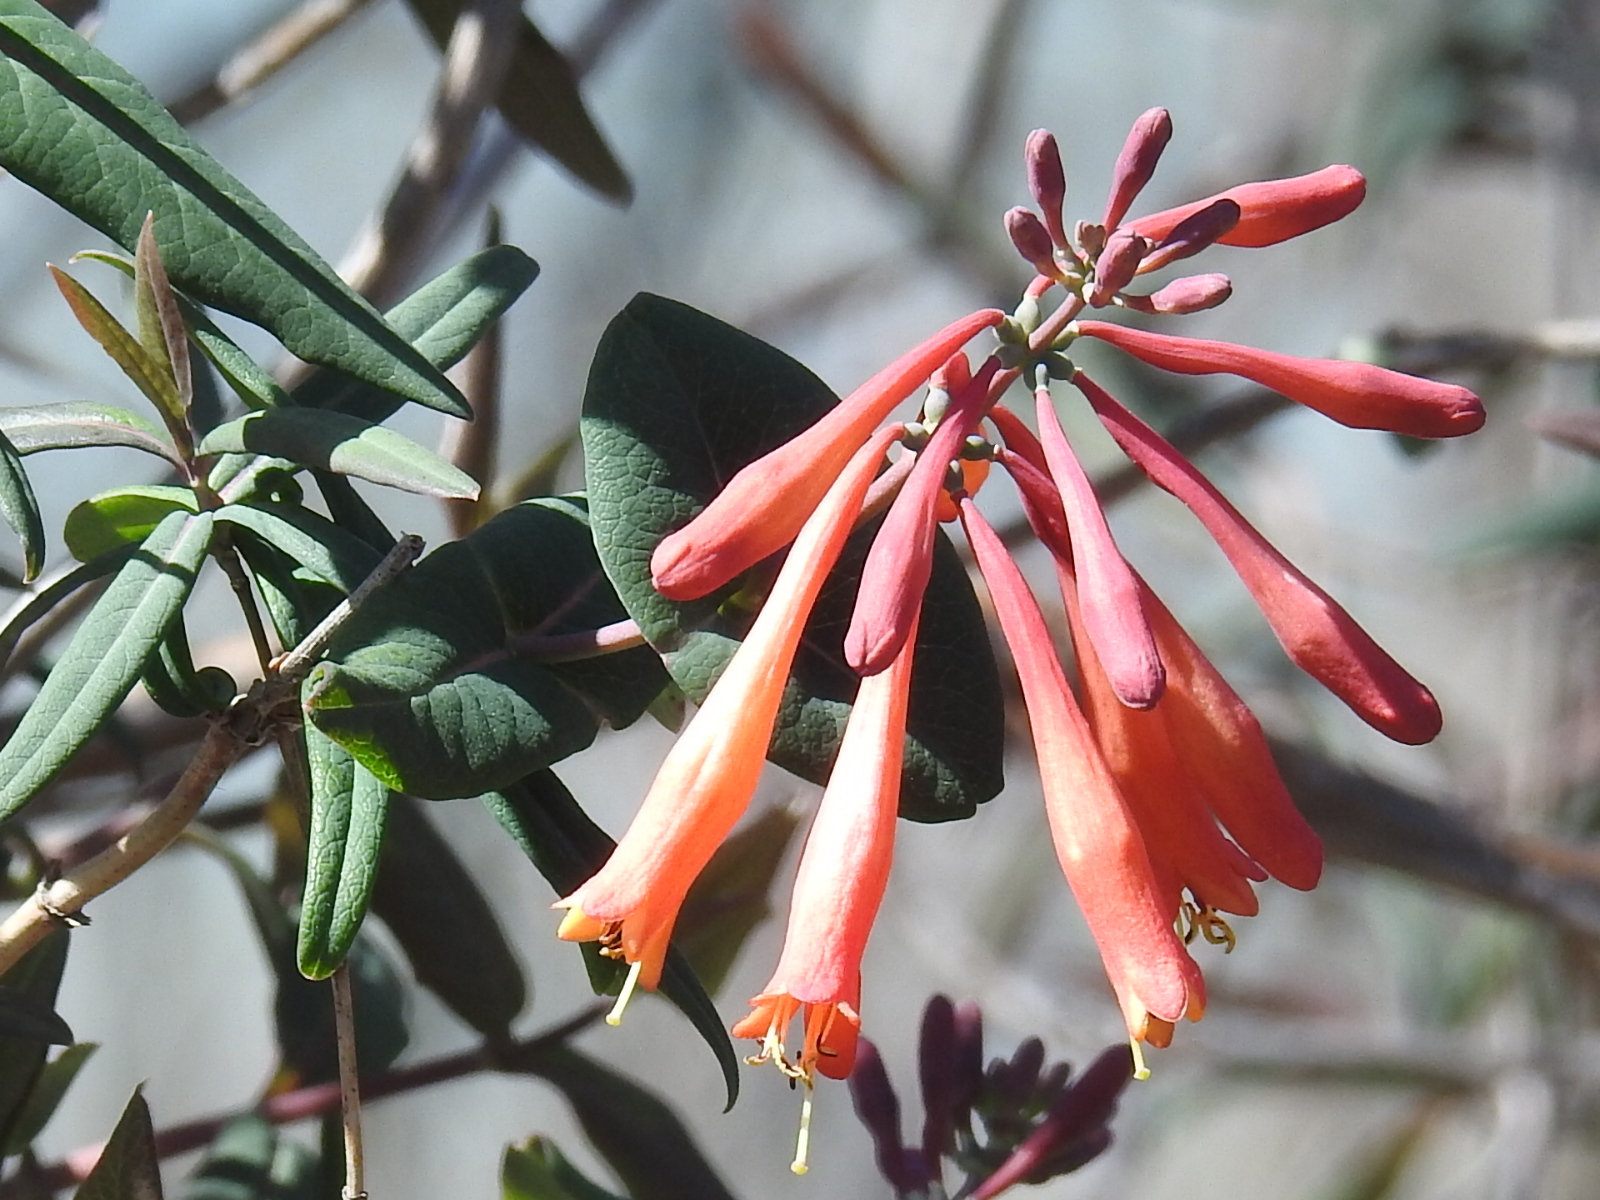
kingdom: Plantae
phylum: Tracheophyta
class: Magnoliopsida
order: Dipsacales
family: Caprifoliaceae
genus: Lonicera
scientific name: Lonicera sempervirens
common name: Coral honeysuckle
